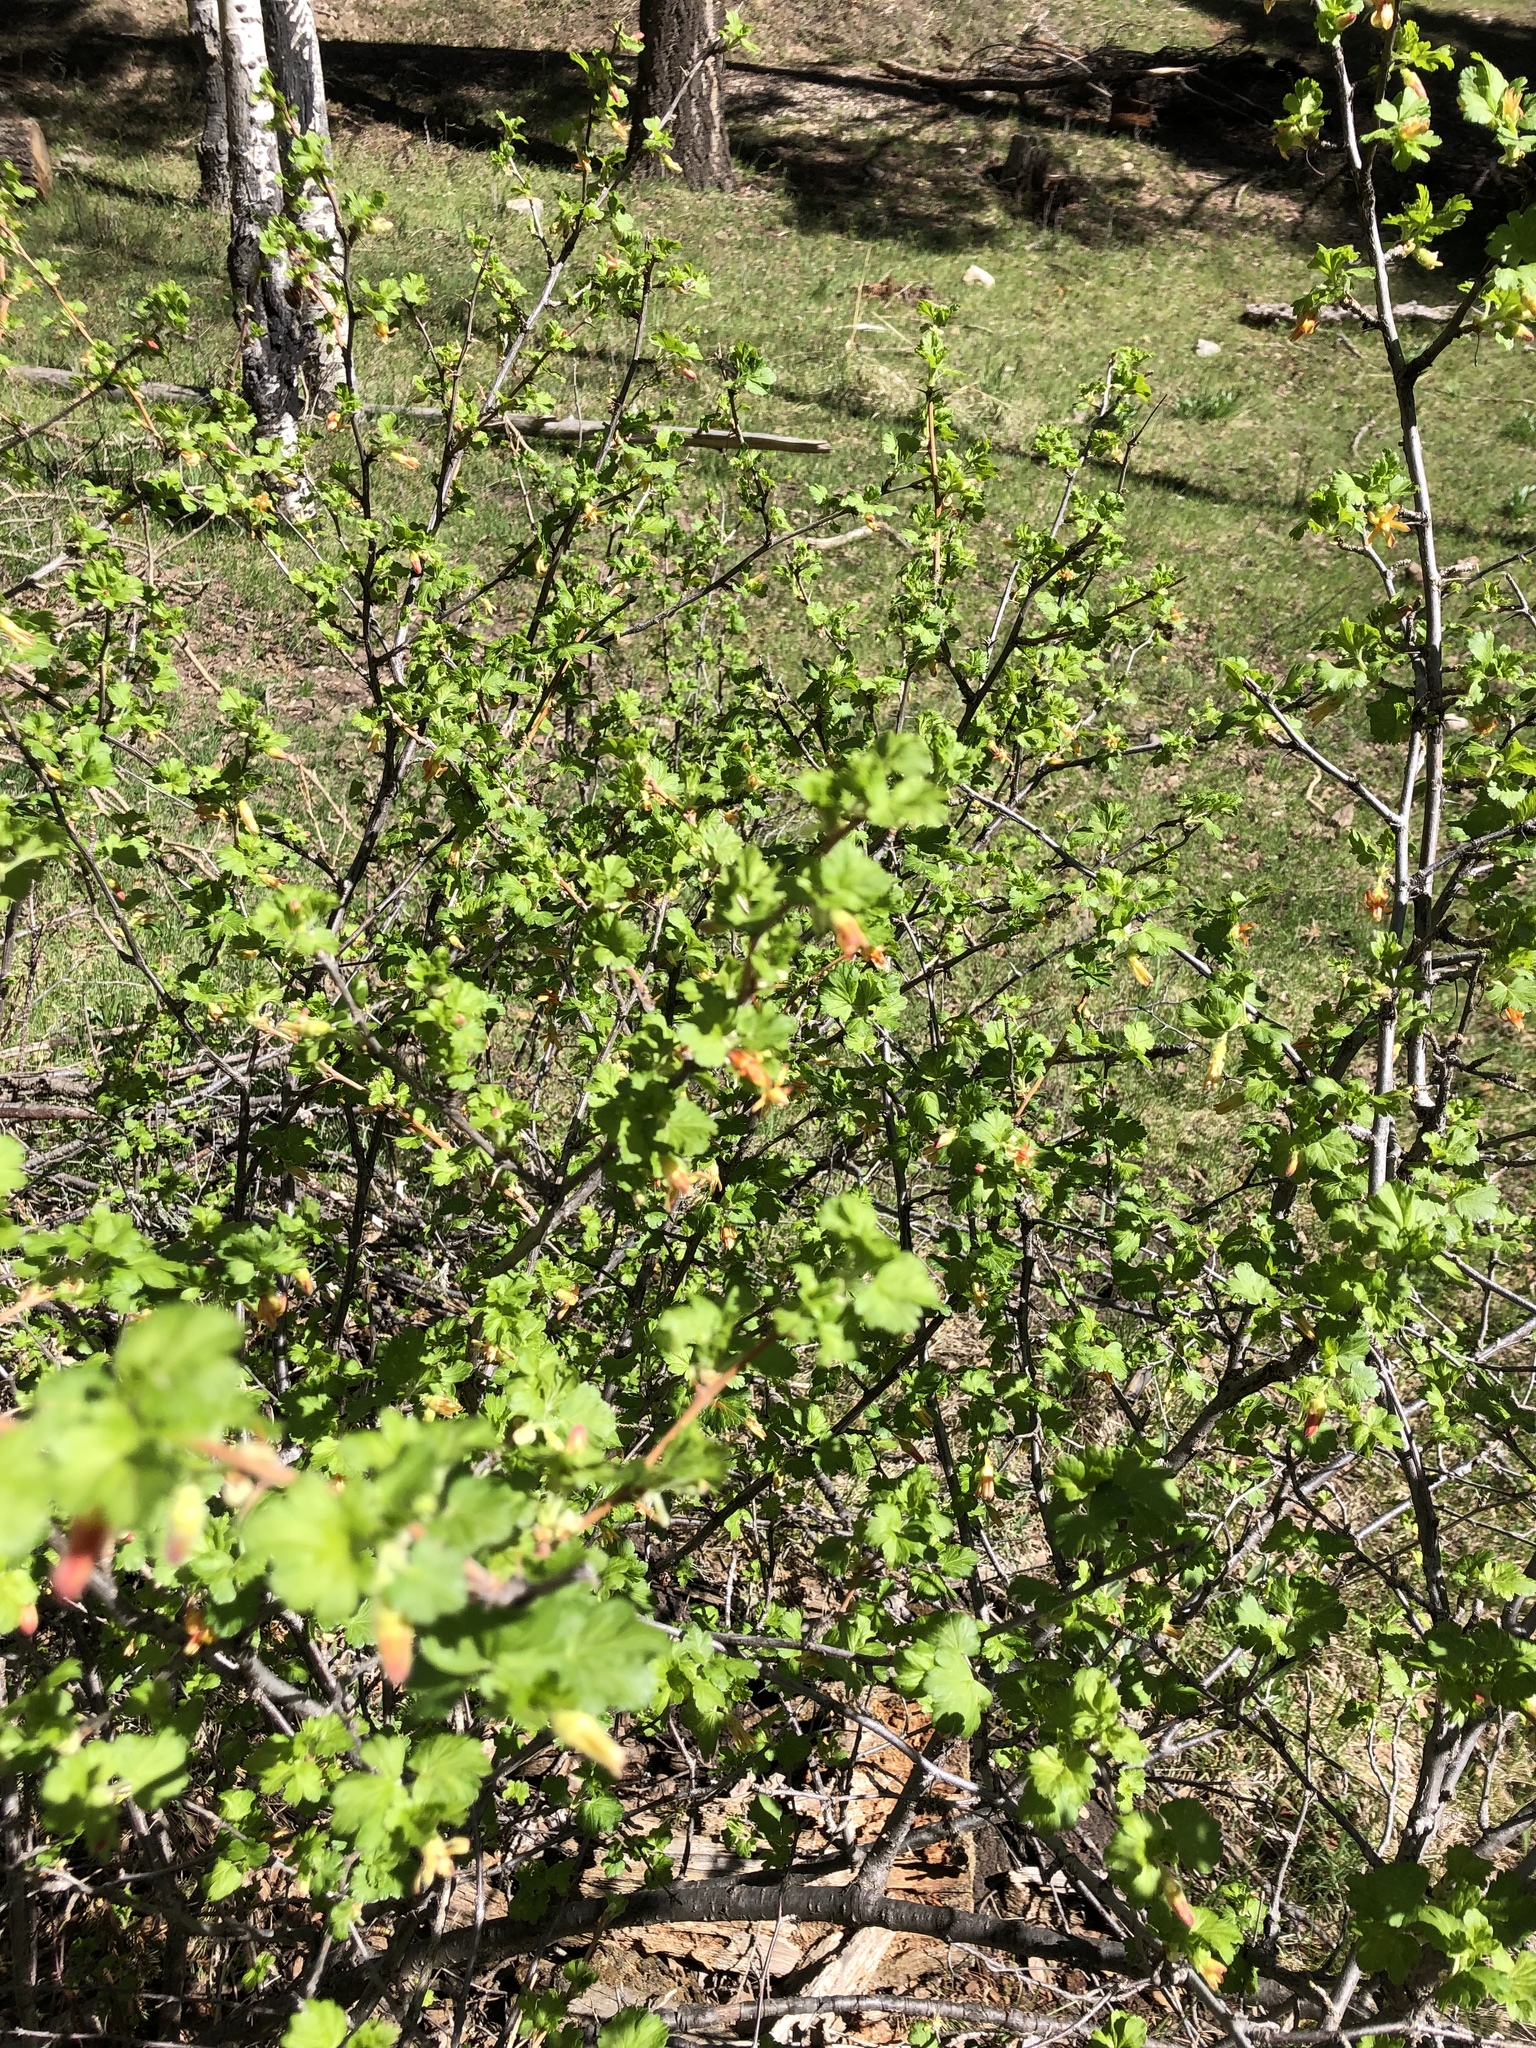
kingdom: Plantae
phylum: Tracheophyta
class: Magnoliopsida
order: Saxifragales
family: Grossulariaceae
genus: Ribes
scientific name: Ribes pinetorum
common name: Orange gooseberry
